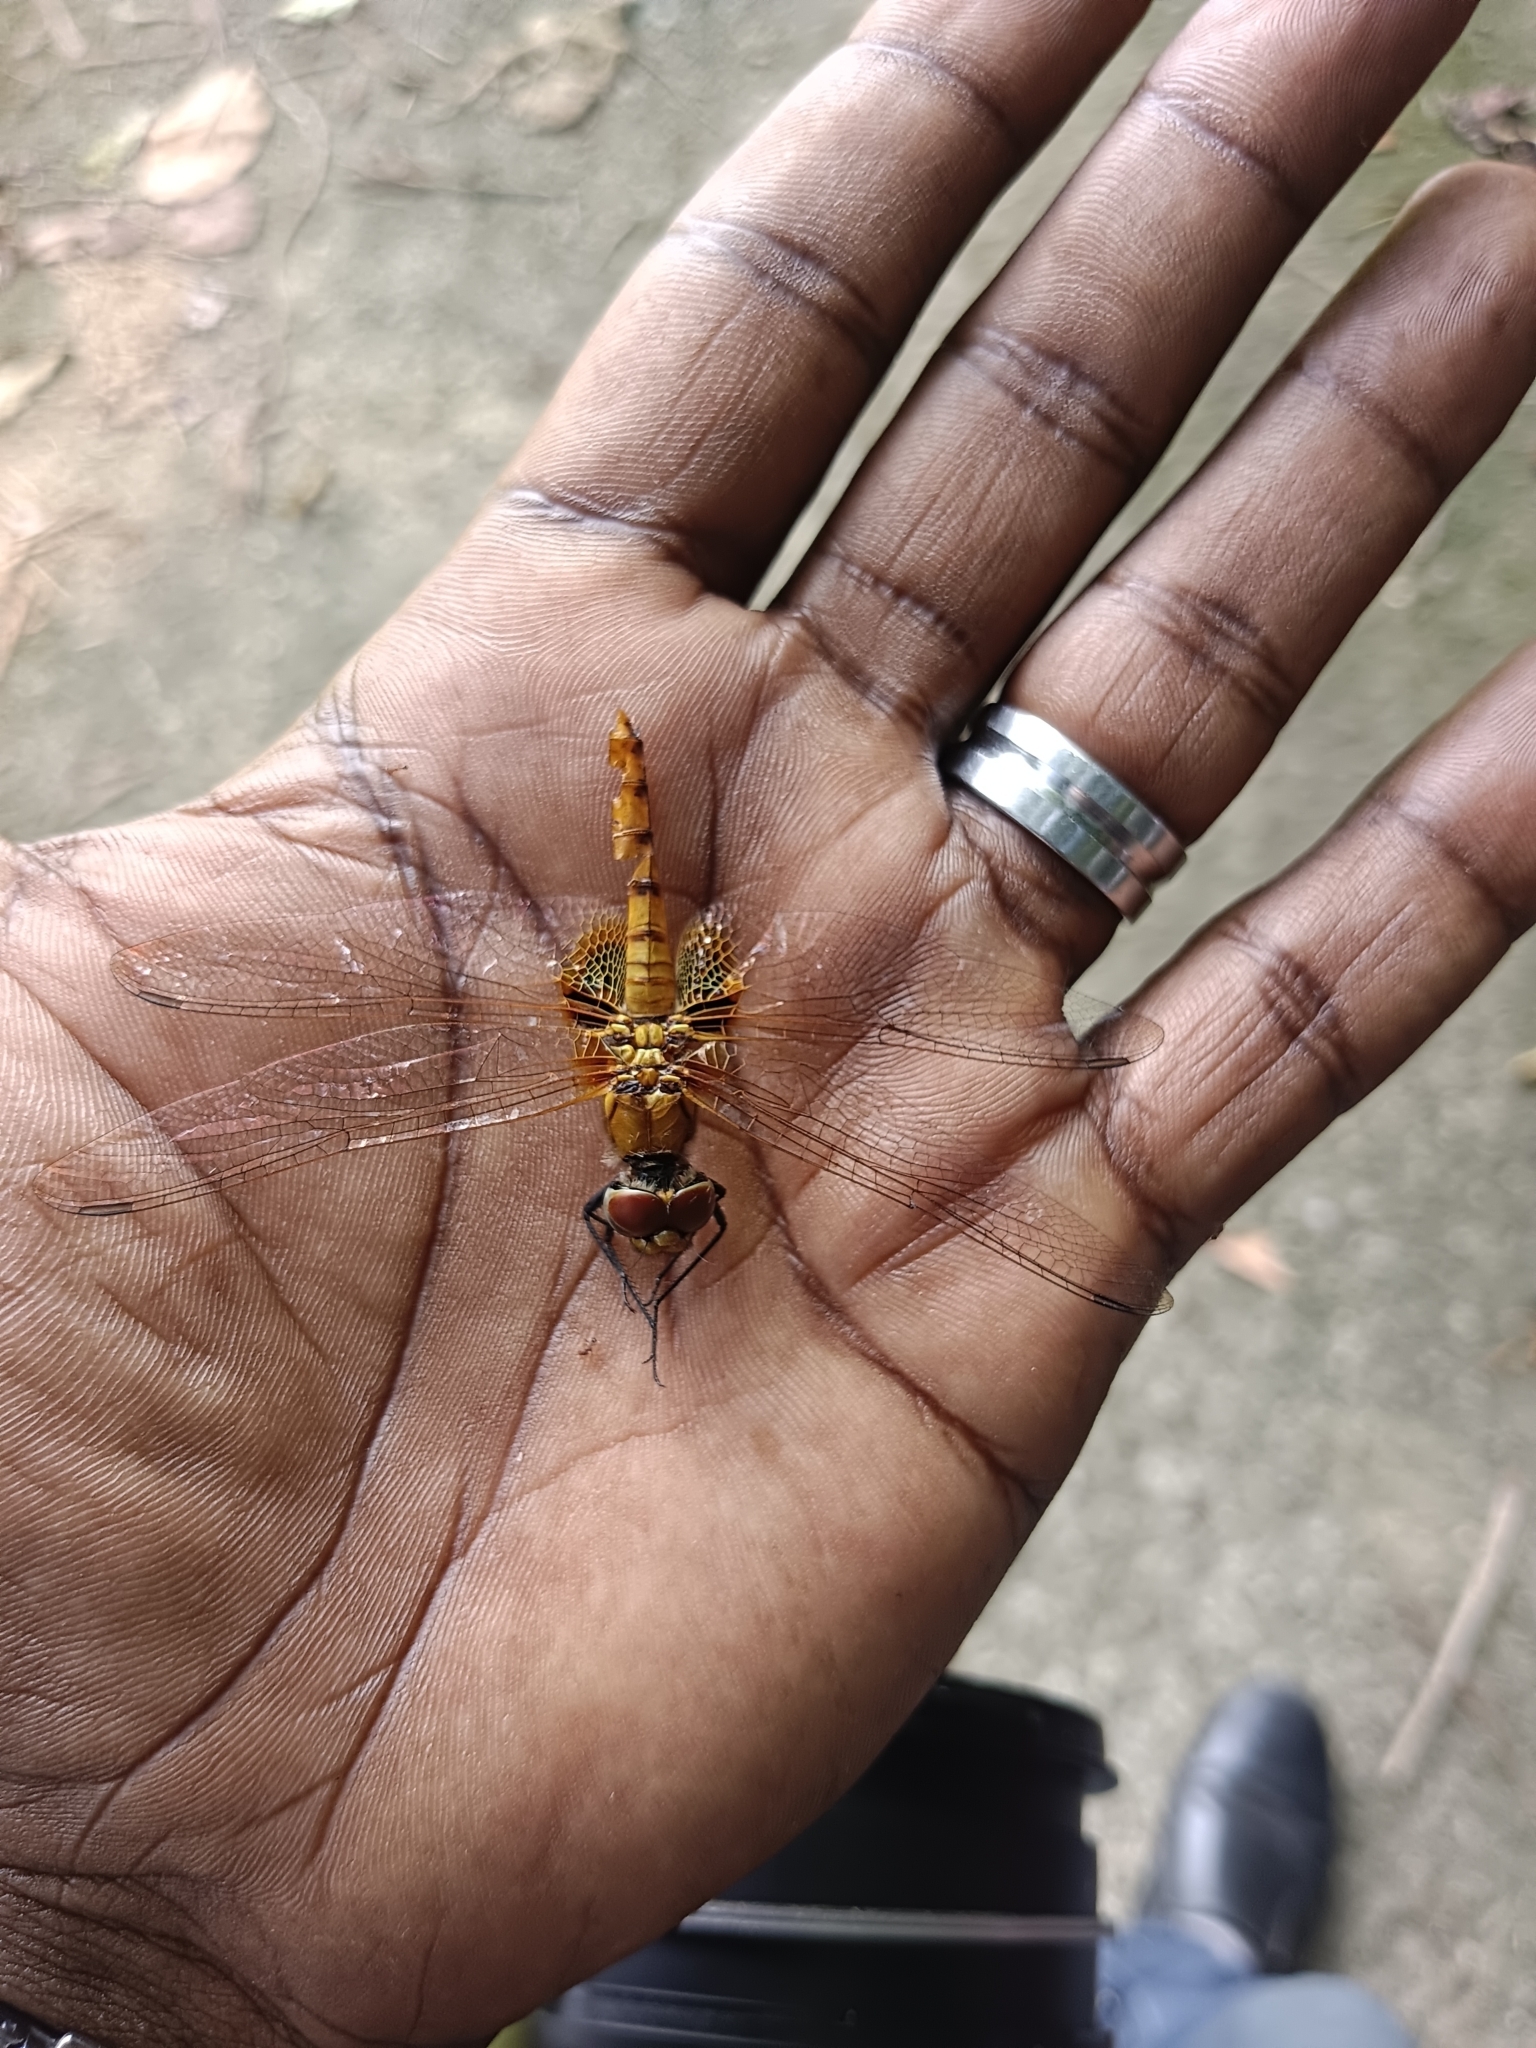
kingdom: Animalia
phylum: Arthropoda
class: Insecta
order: Odonata
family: Libellulidae
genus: Urothemis
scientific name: Urothemis signata
